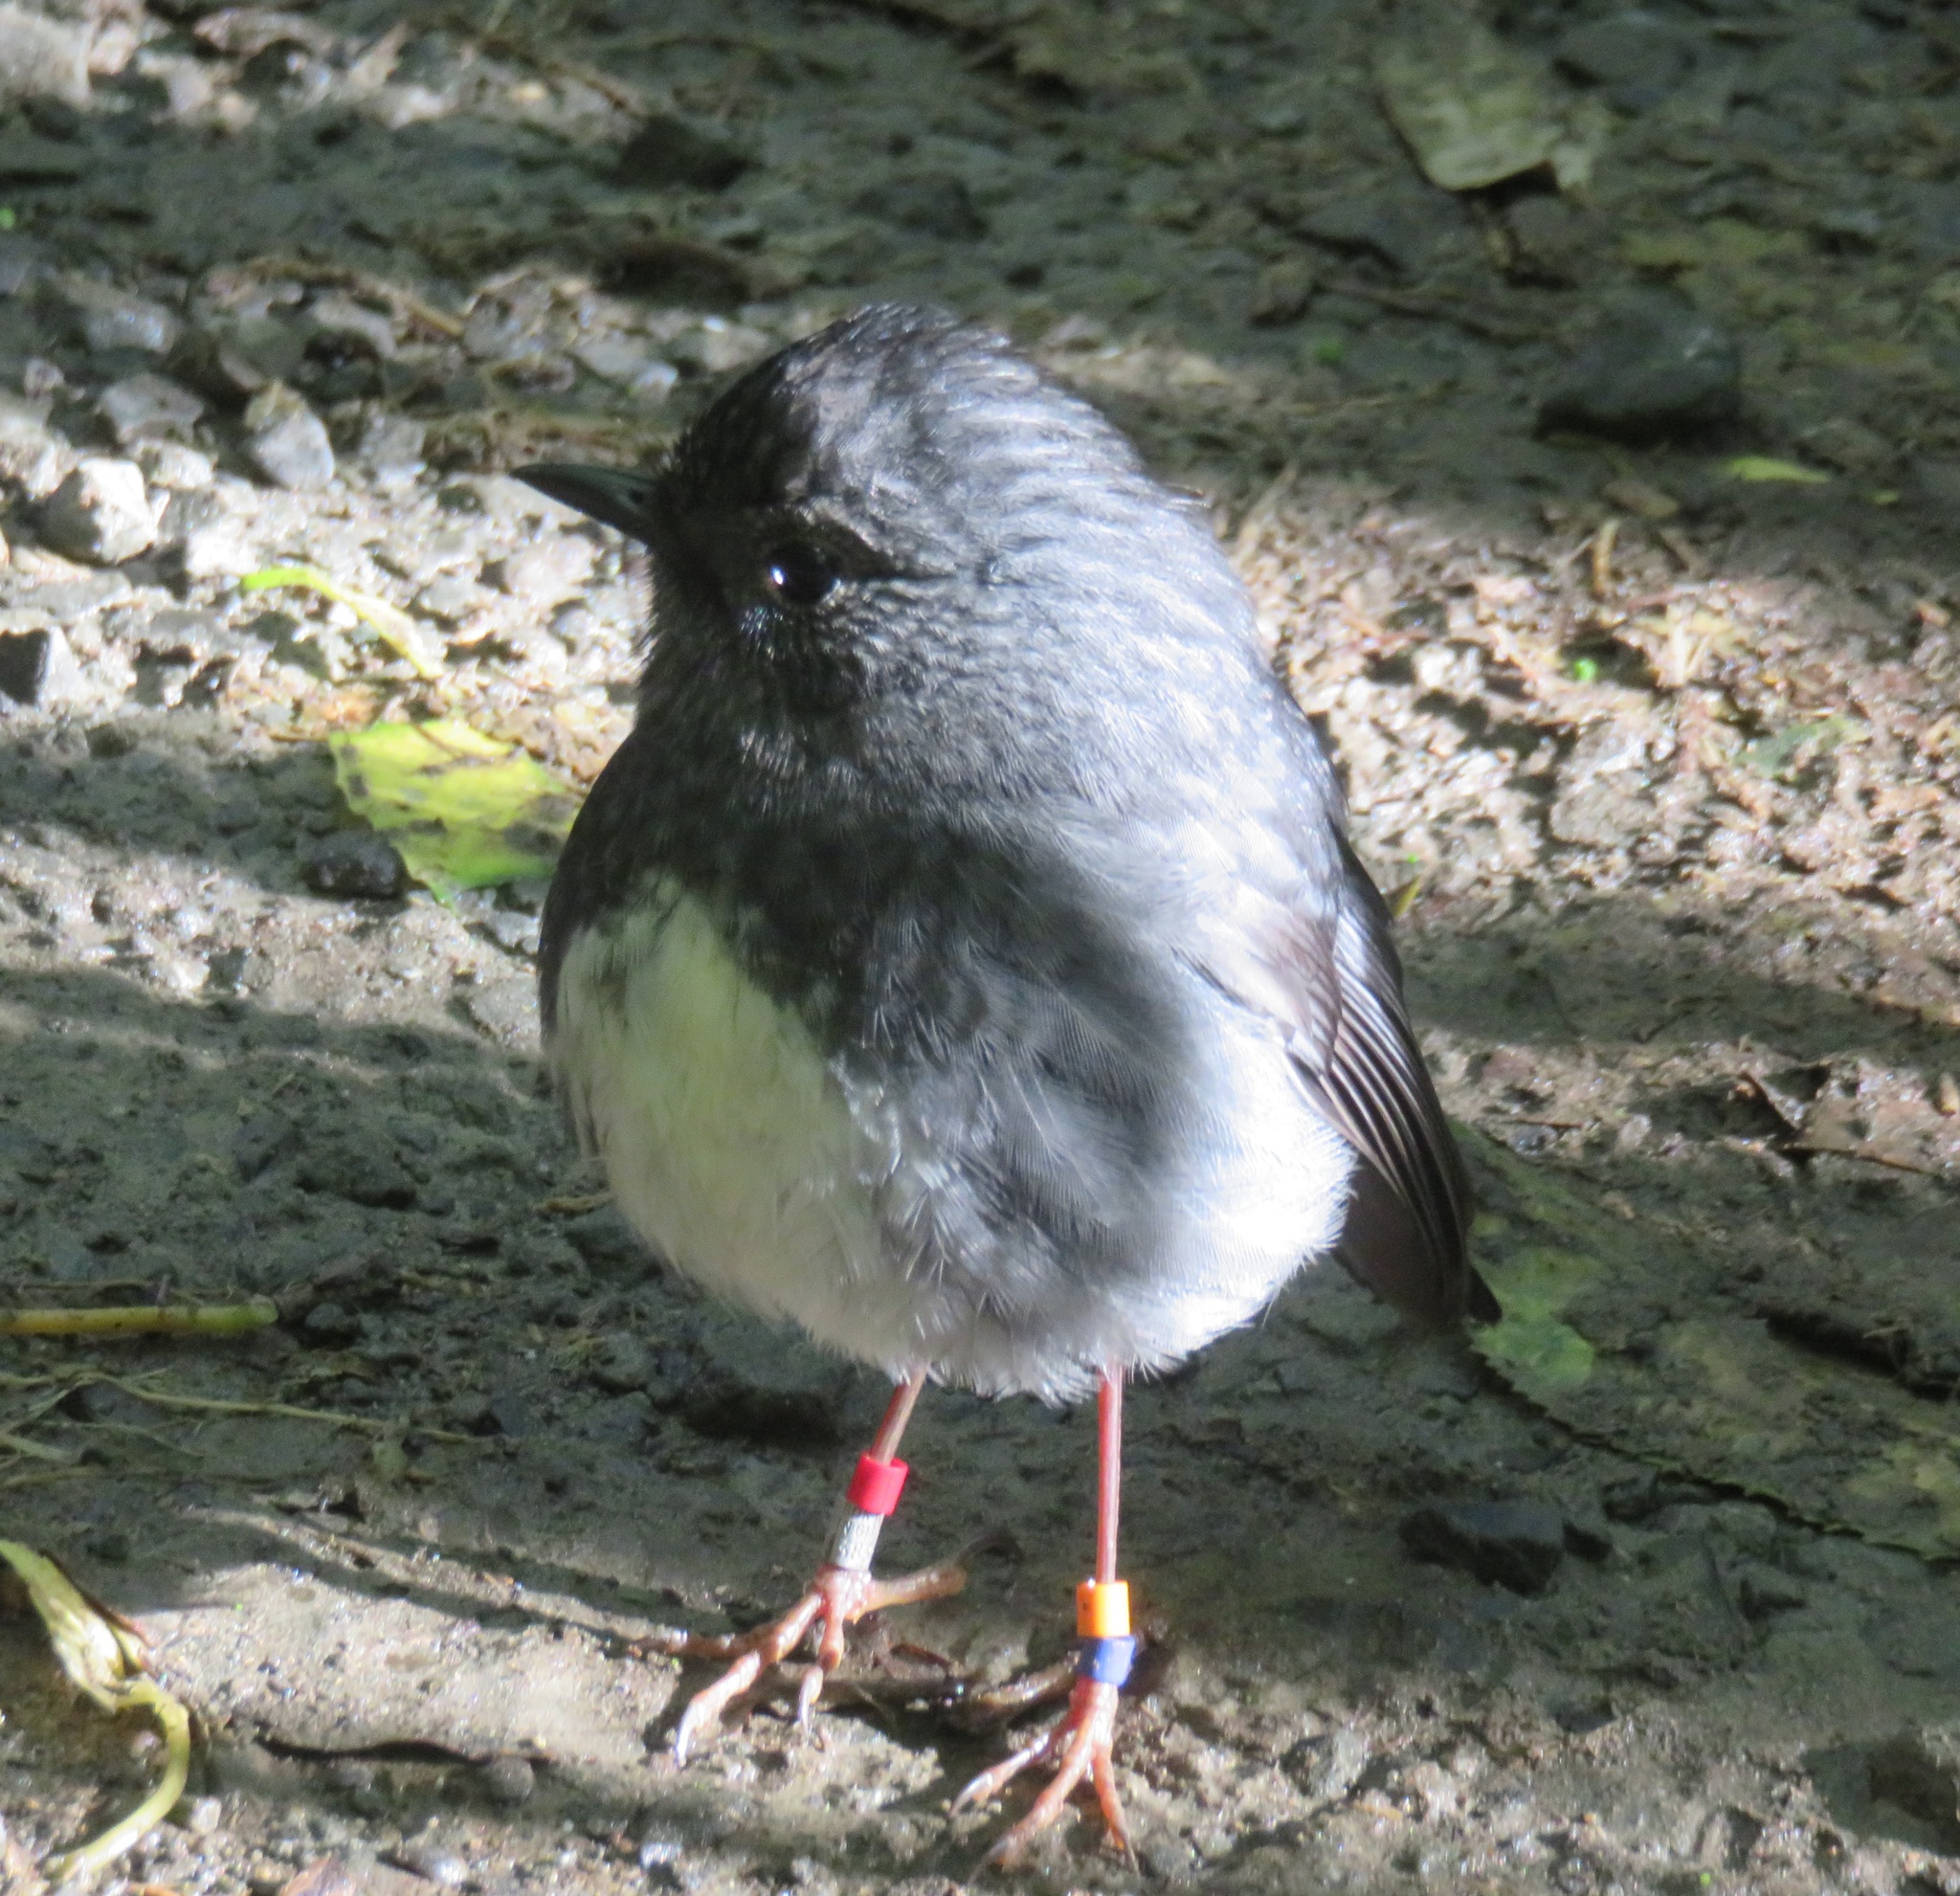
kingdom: Animalia
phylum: Chordata
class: Aves
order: Passeriformes
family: Petroicidae
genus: Petroica
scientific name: Petroica australis
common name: New zealand robin
